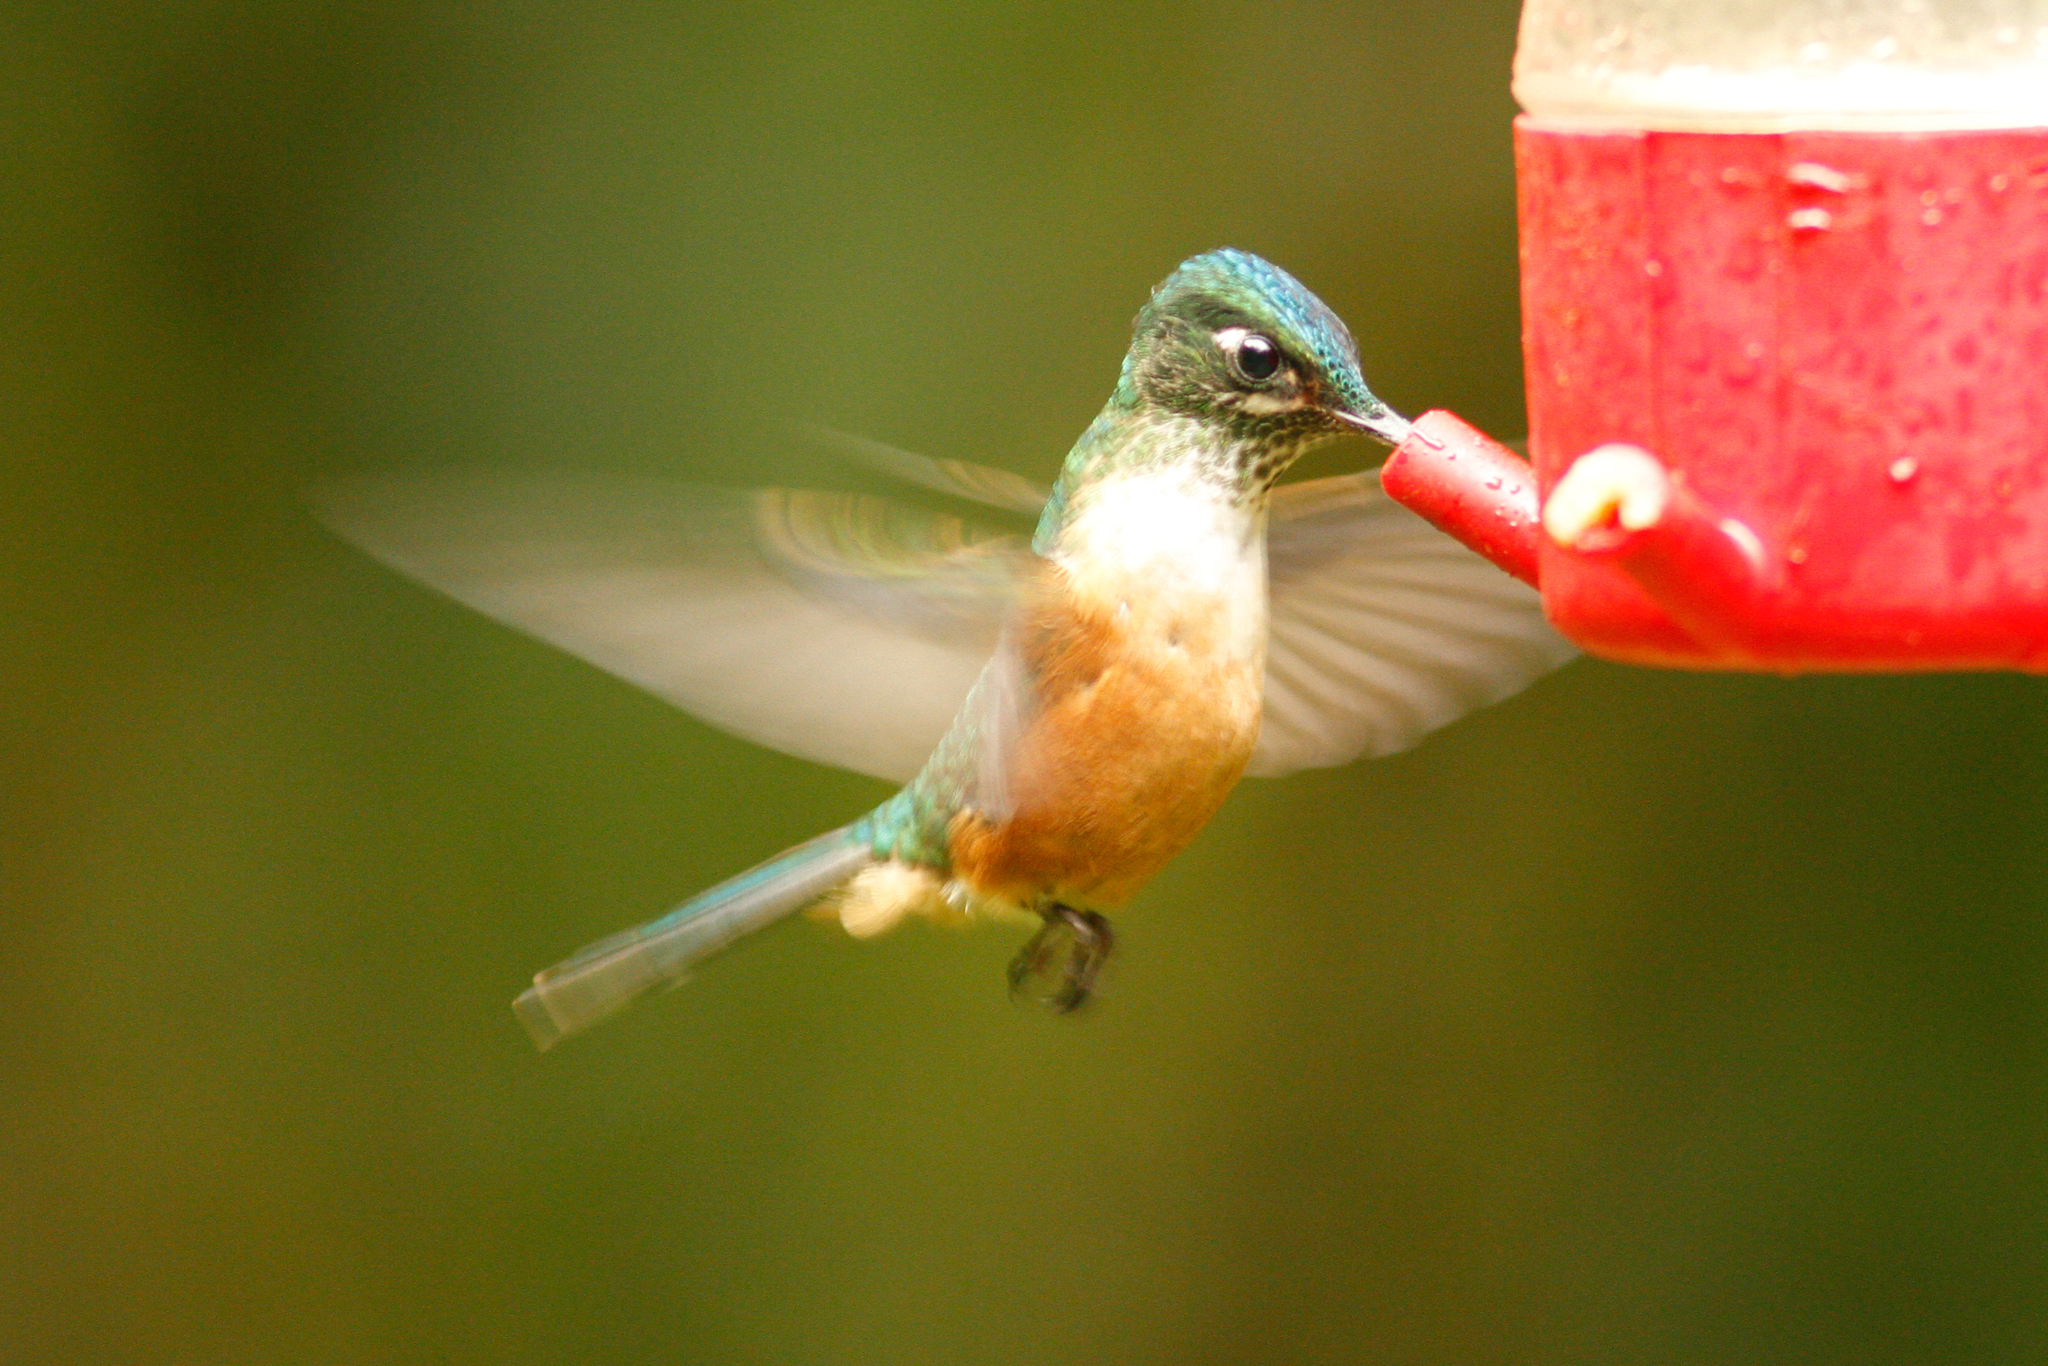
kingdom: Animalia
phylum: Chordata
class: Aves
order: Apodiformes
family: Trochilidae
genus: Aglaiocercus
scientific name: Aglaiocercus coelestis
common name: Violet-tailed sylph
